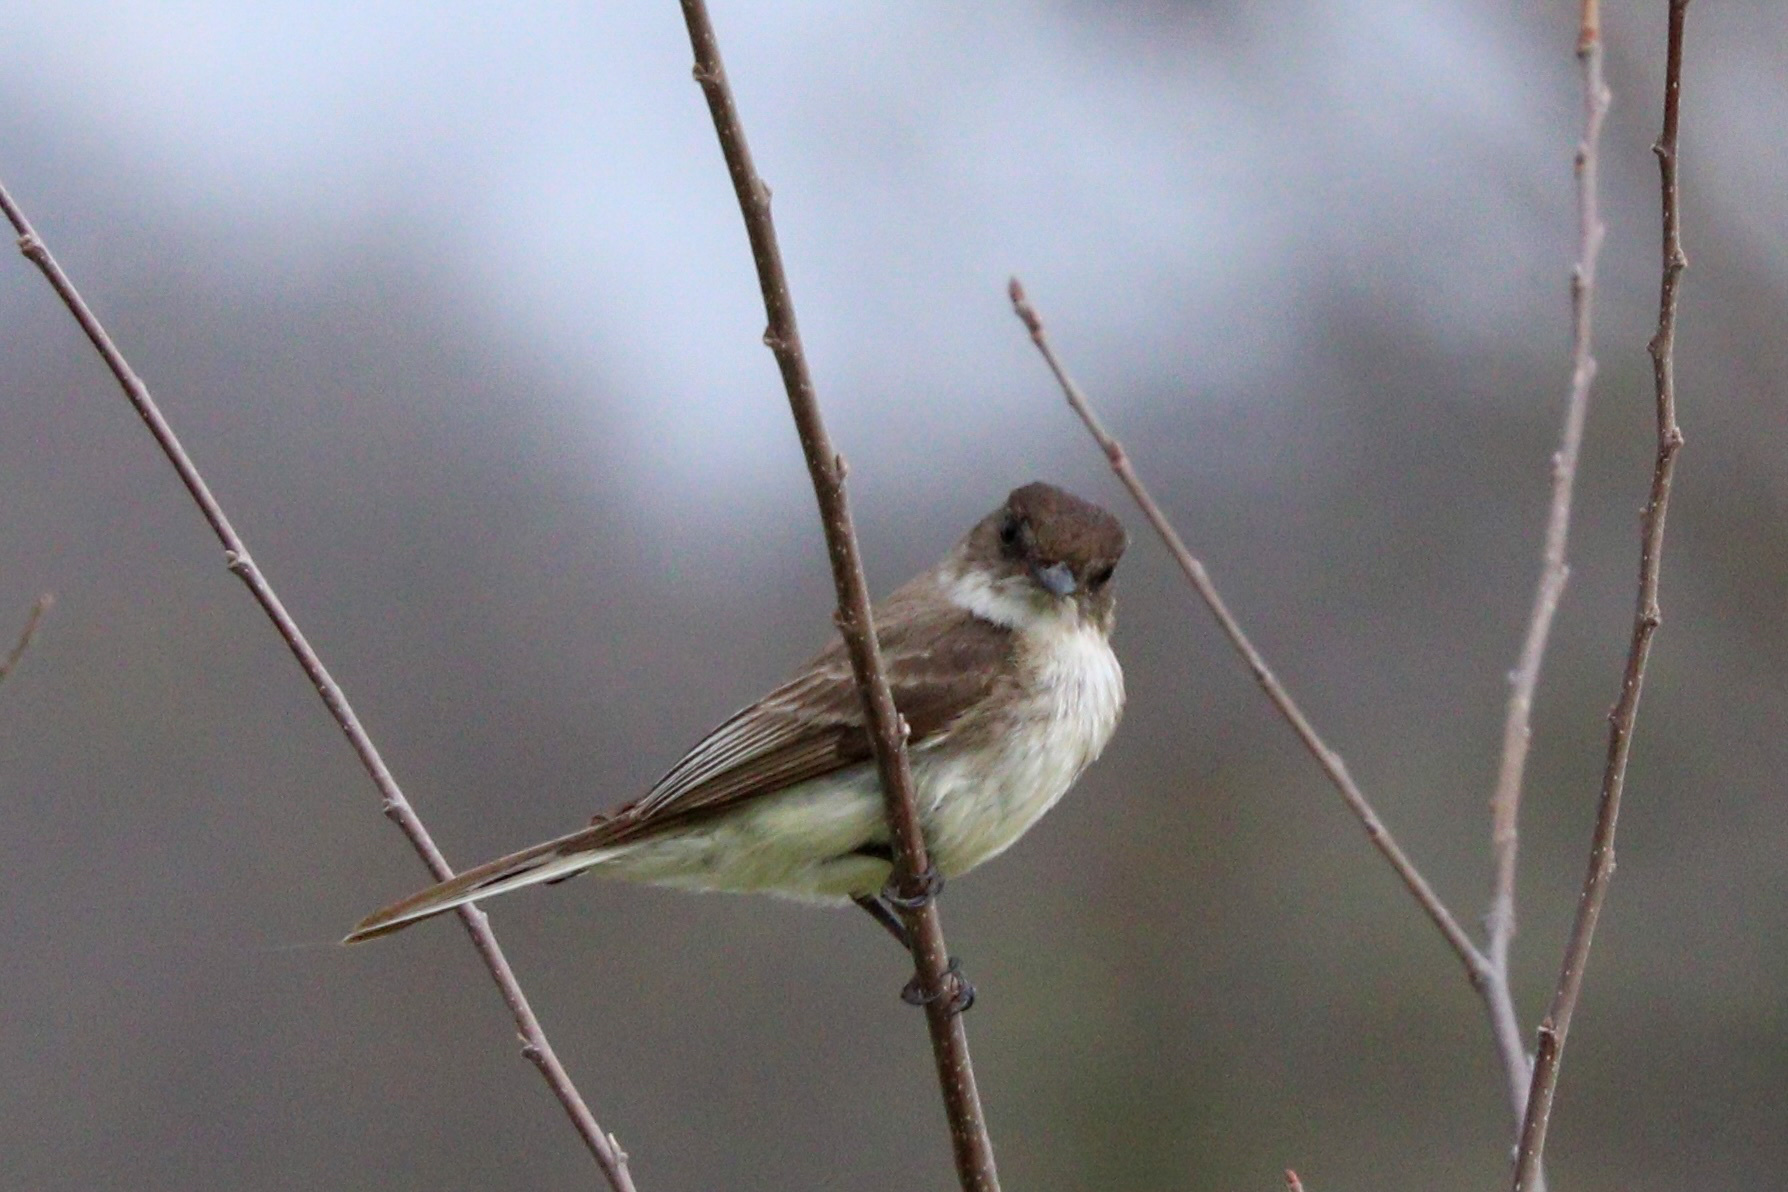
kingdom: Animalia
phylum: Chordata
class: Aves
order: Passeriformes
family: Tyrannidae
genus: Sayornis
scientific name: Sayornis phoebe
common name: Eastern phoebe
